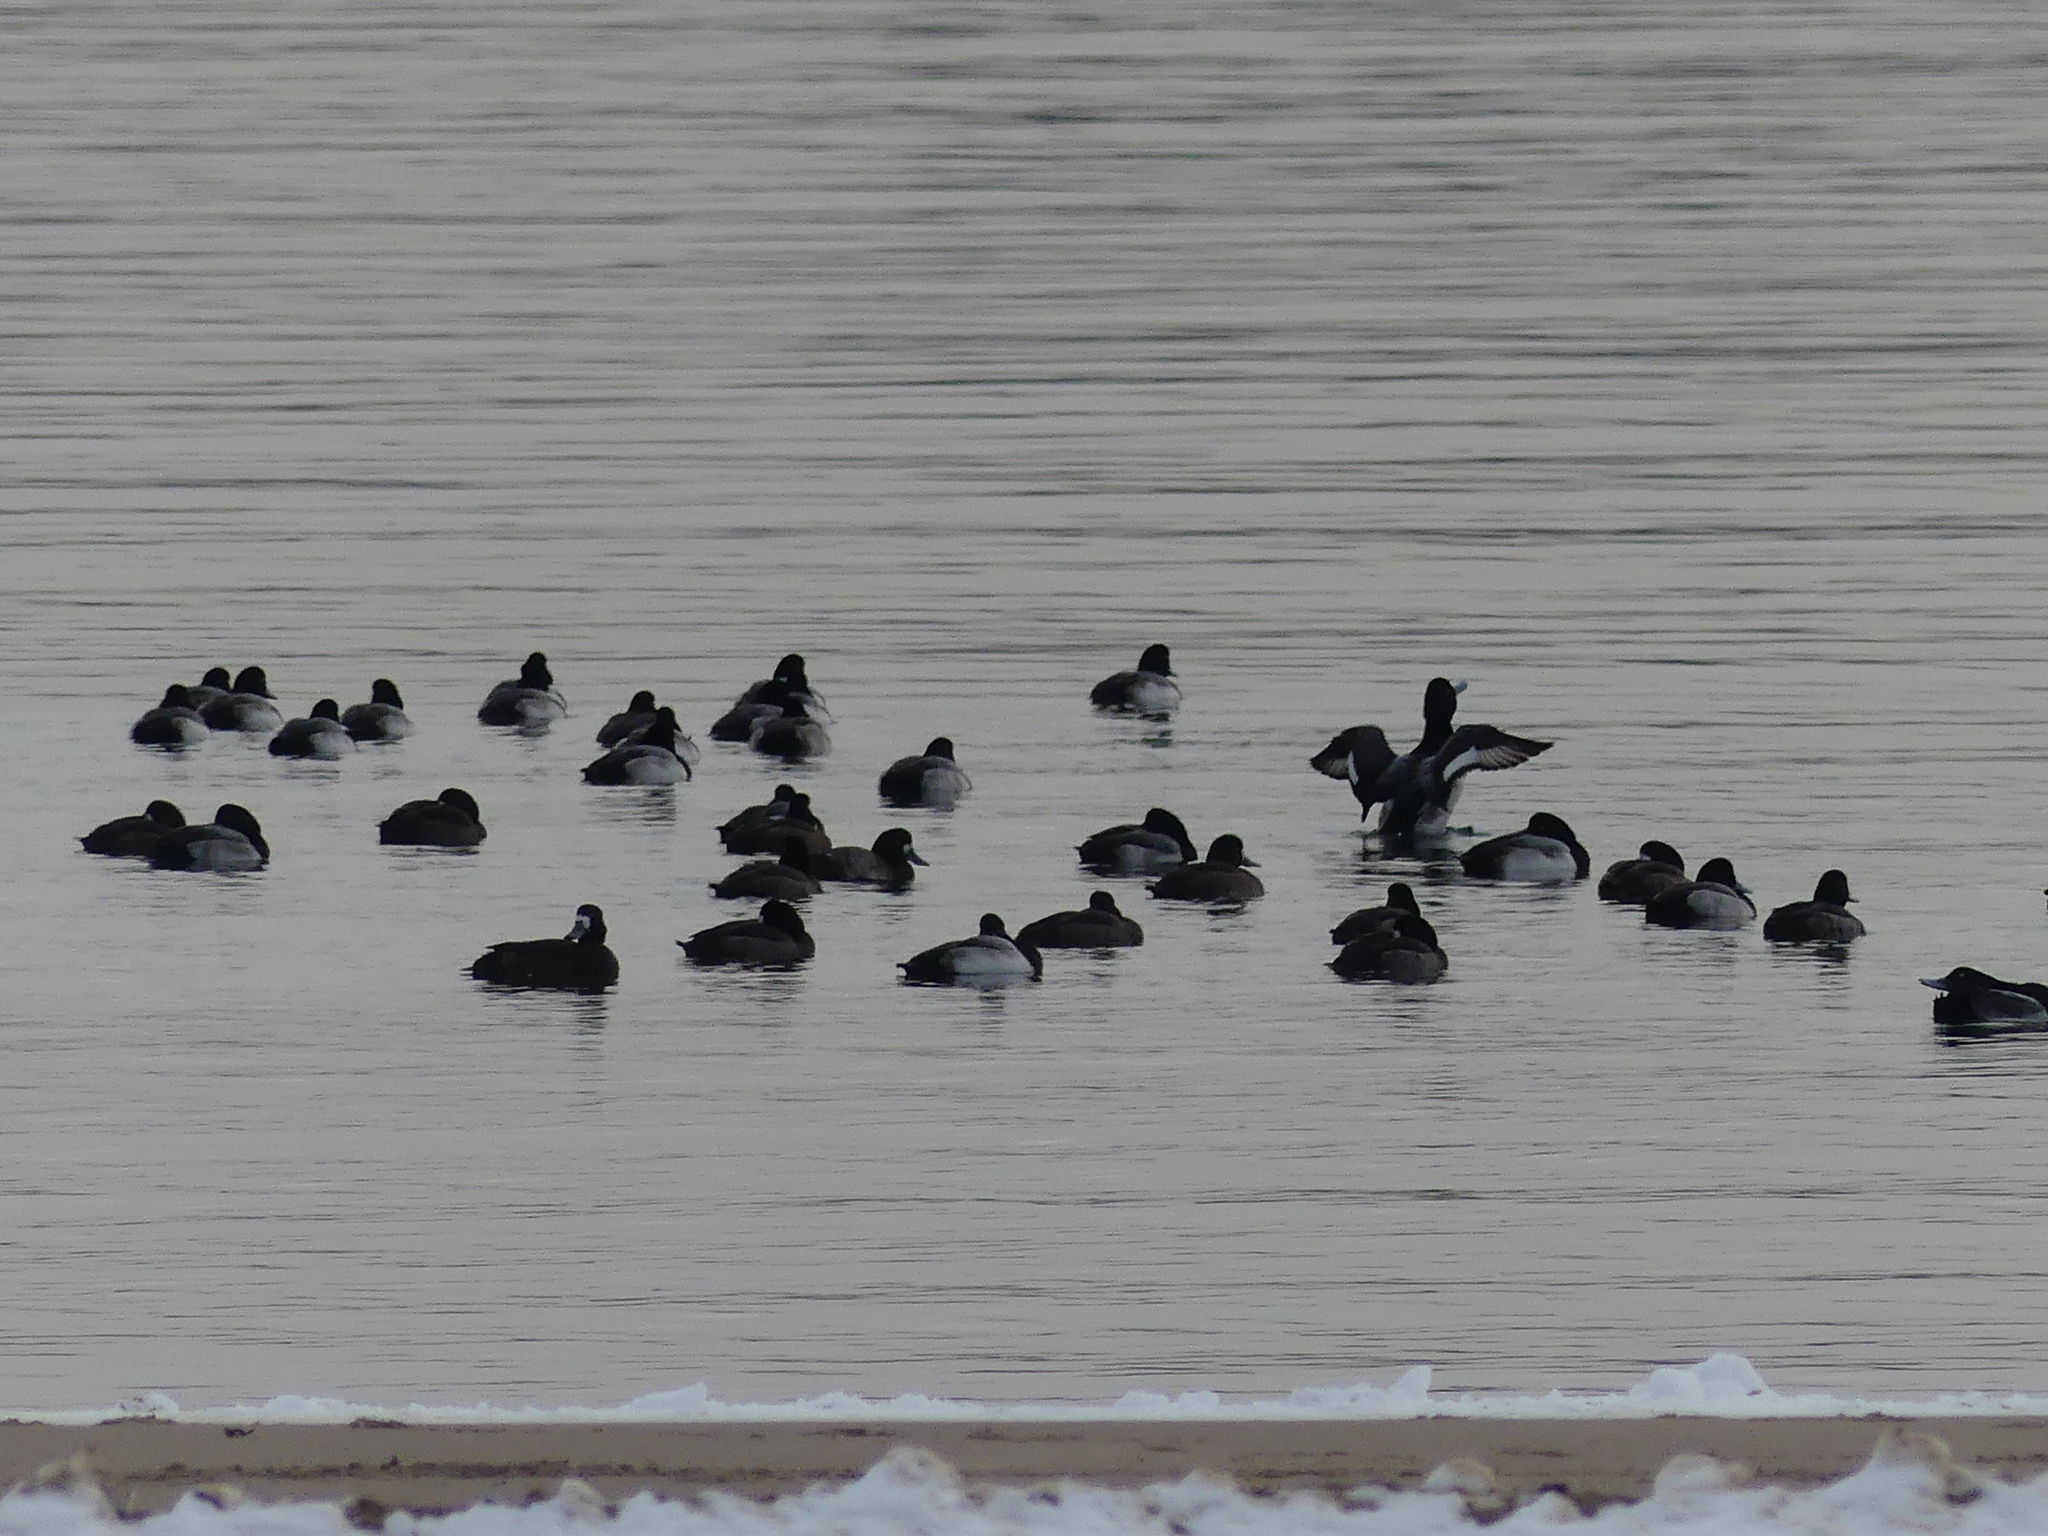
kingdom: Animalia
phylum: Chordata
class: Aves
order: Anseriformes
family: Anatidae
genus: Aythya
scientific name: Aythya marila
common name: Greater scaup
